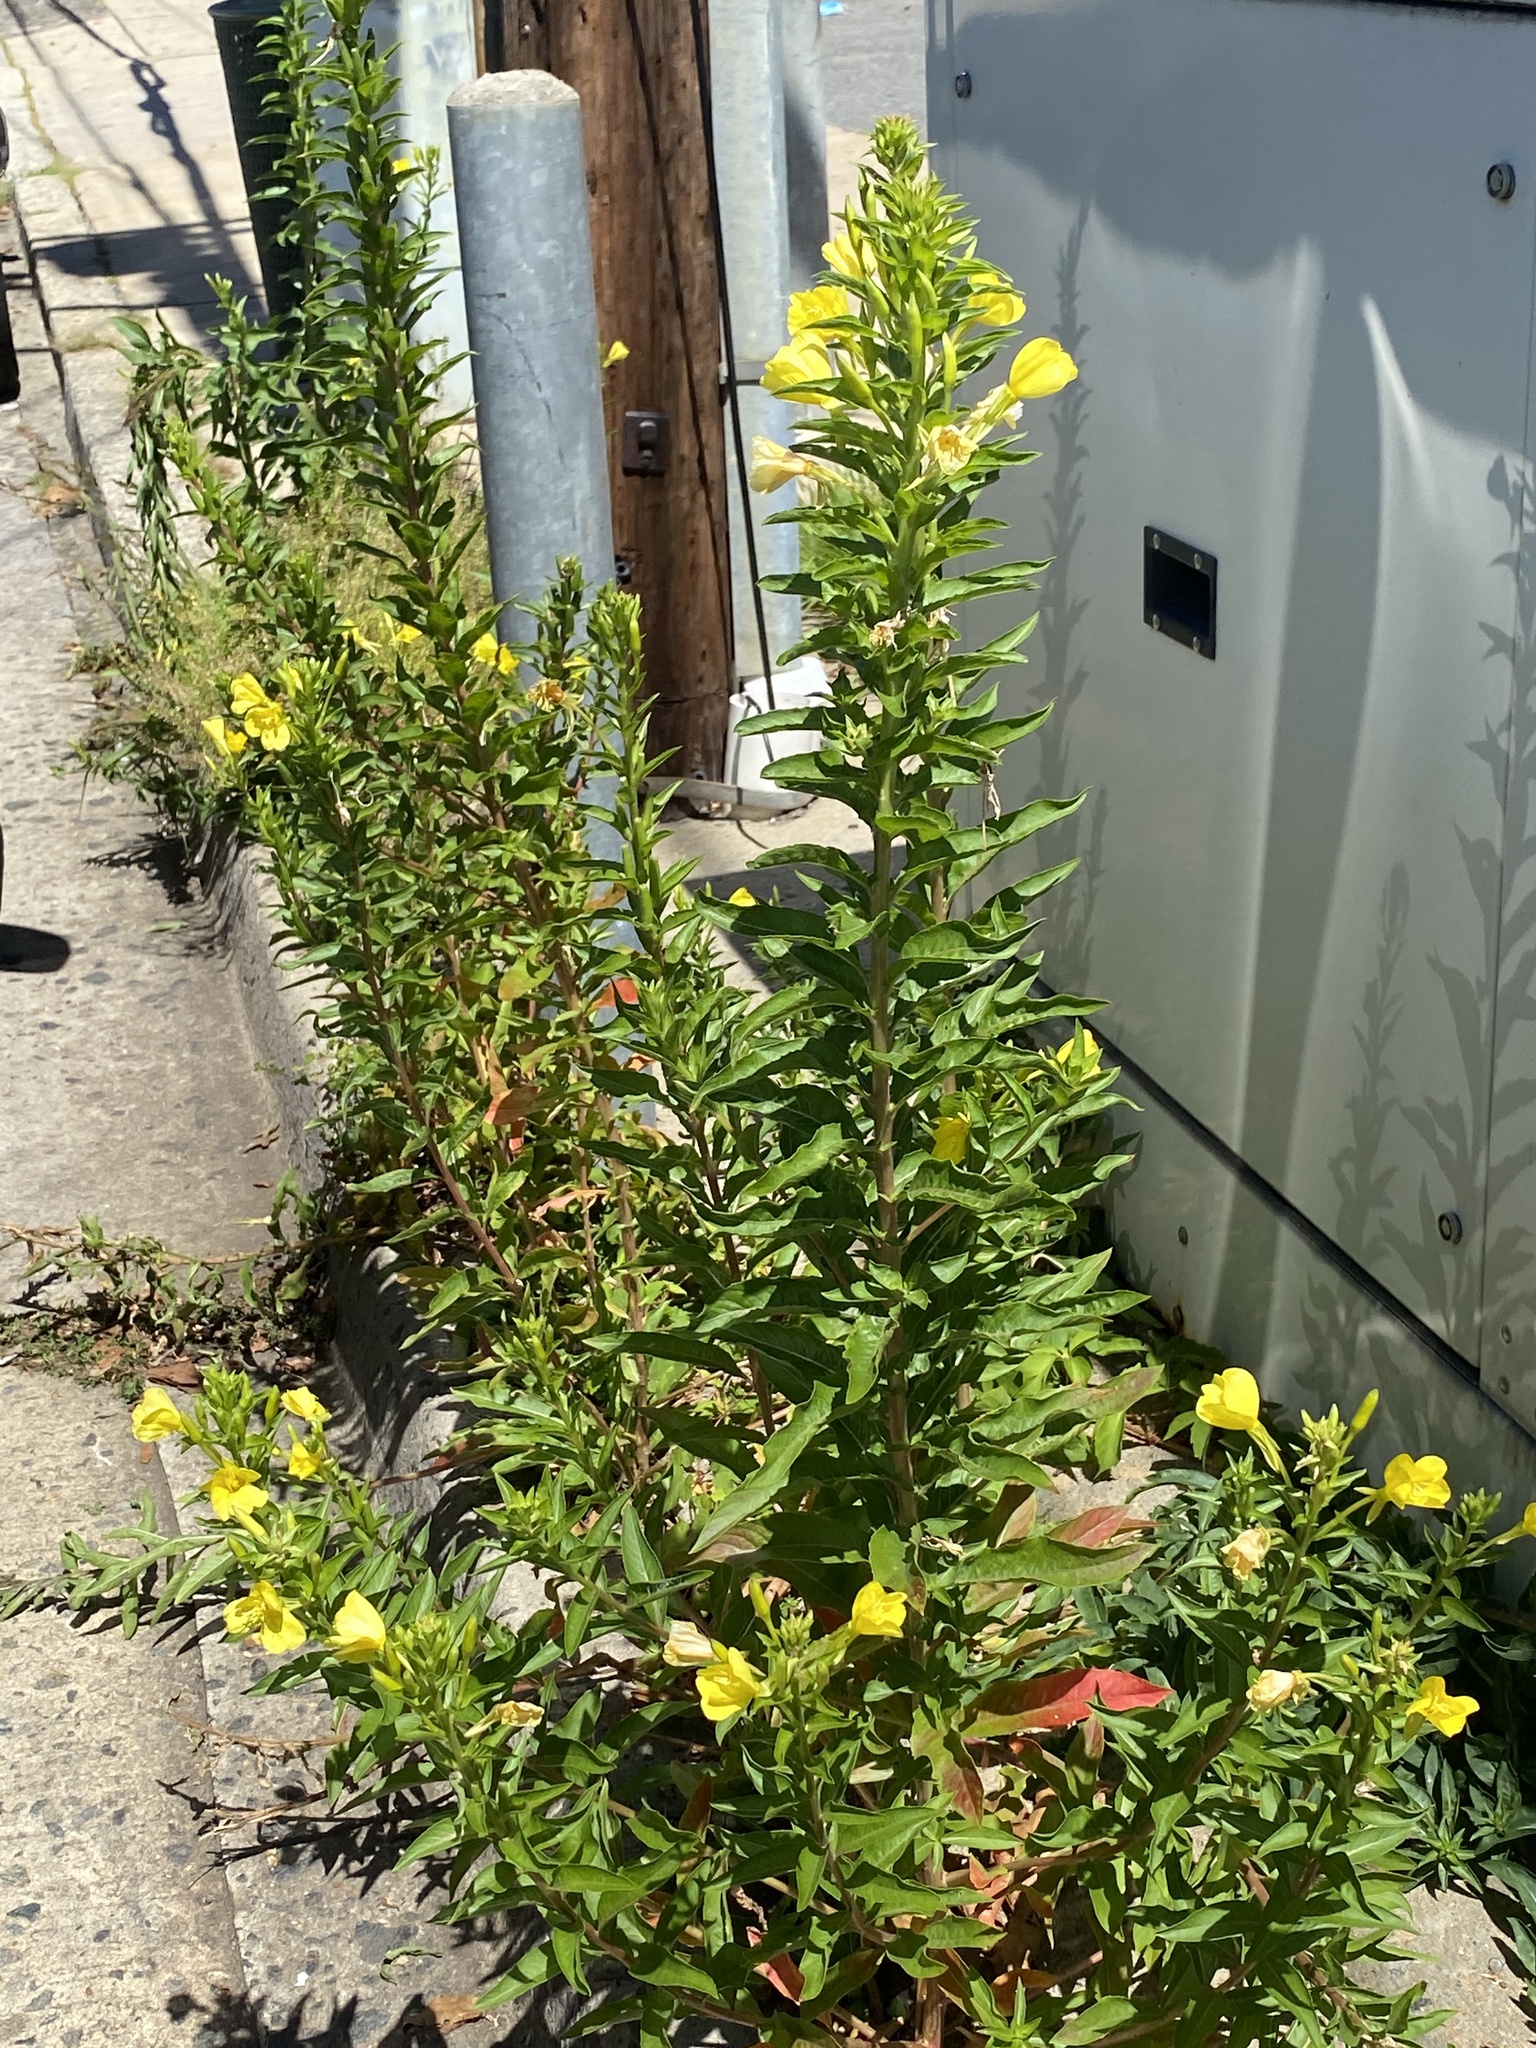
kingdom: Plantae
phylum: Tracheophyta
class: Magnoliopsida
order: Myrtales
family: Onagraceae
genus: Oenothera
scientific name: Oenothera biennis
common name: Common evening-primrose
